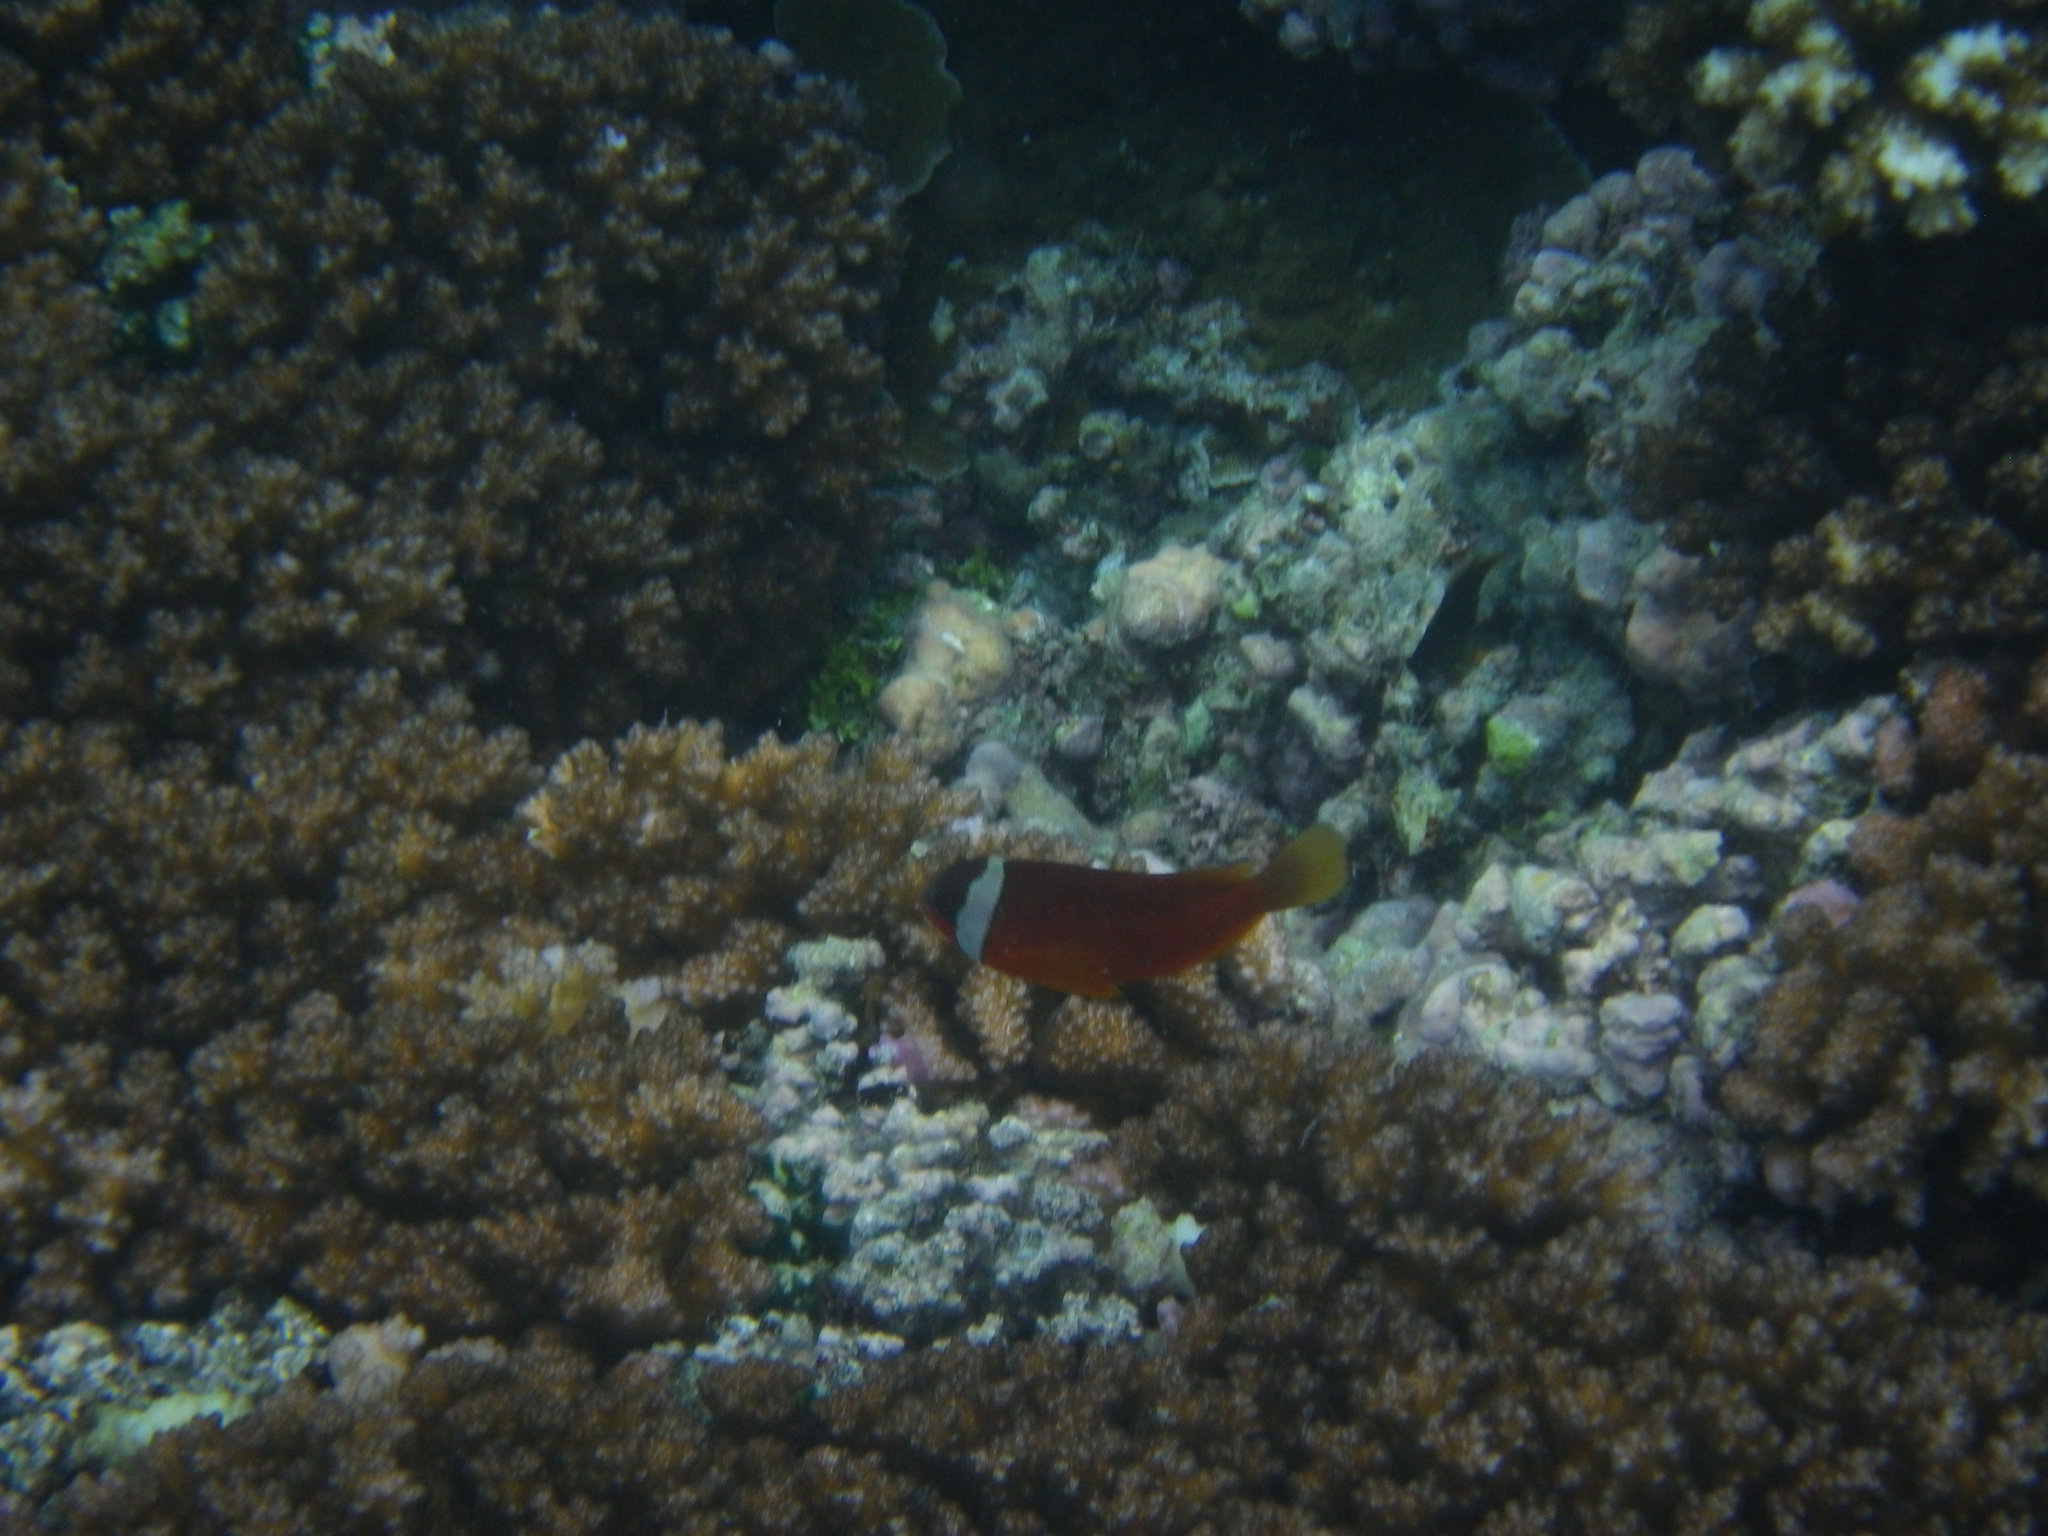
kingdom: Animalia
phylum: Chordata
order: Perciformes
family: Pomacentridae
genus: Amphiprion
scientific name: Amphiprion barberi
